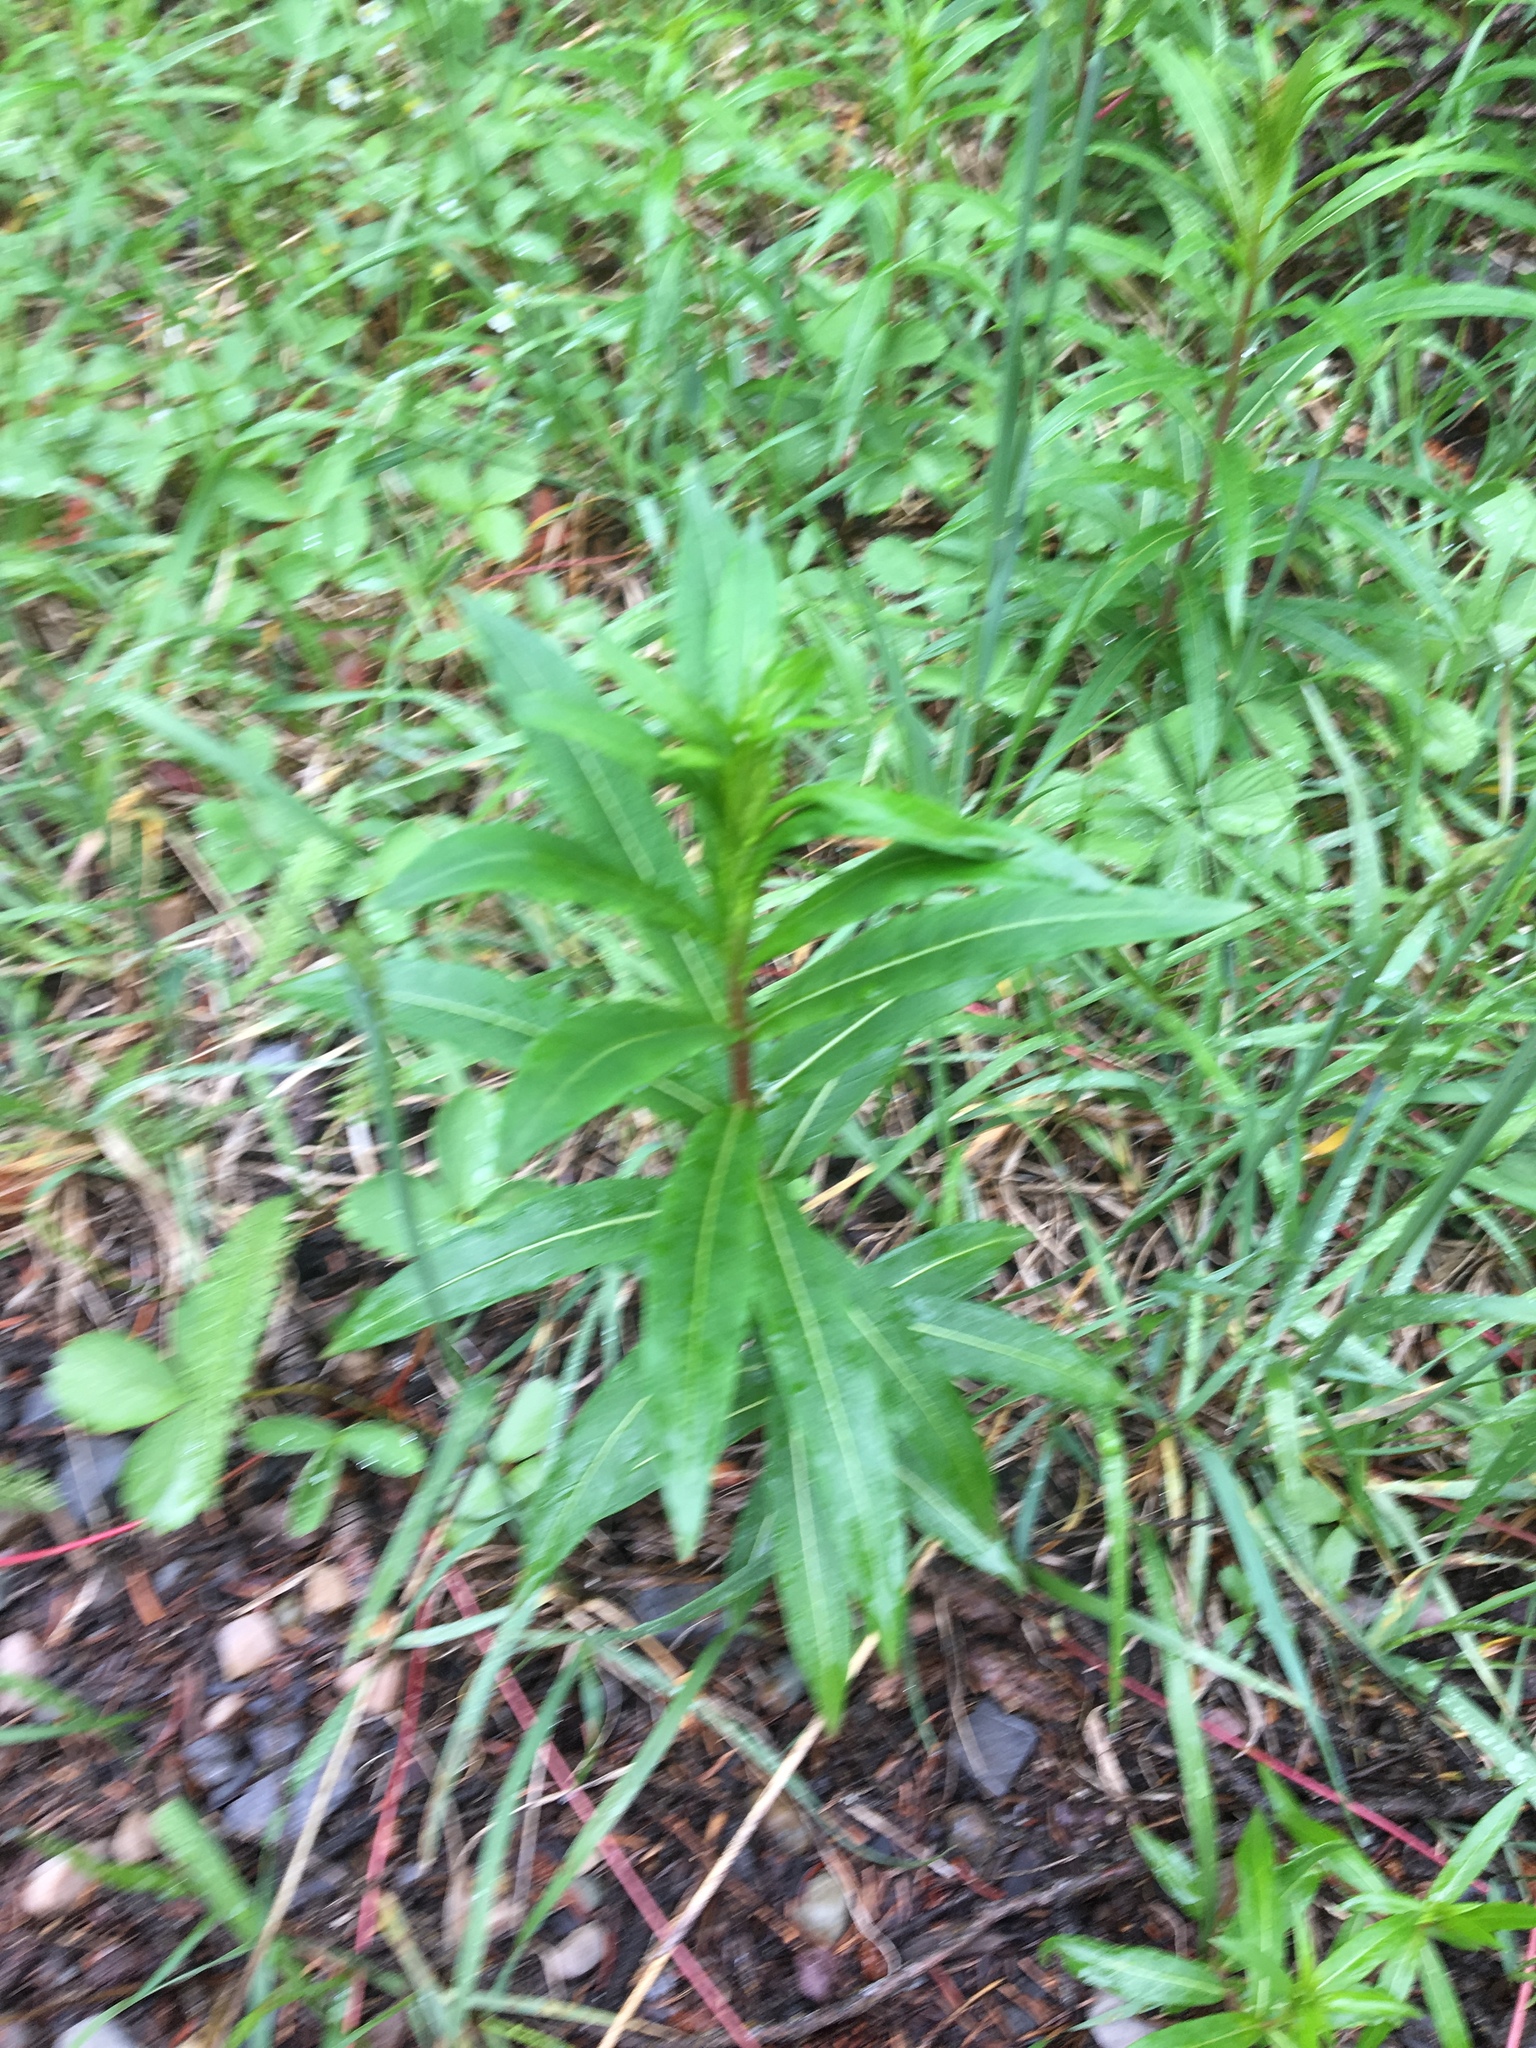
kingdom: Plantae
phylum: Tracheophyta
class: Magnoliopsida
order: Myrtales
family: Onagraceae
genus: Chamaenerion
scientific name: Chamaenerion angustifolium
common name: Fireweed
